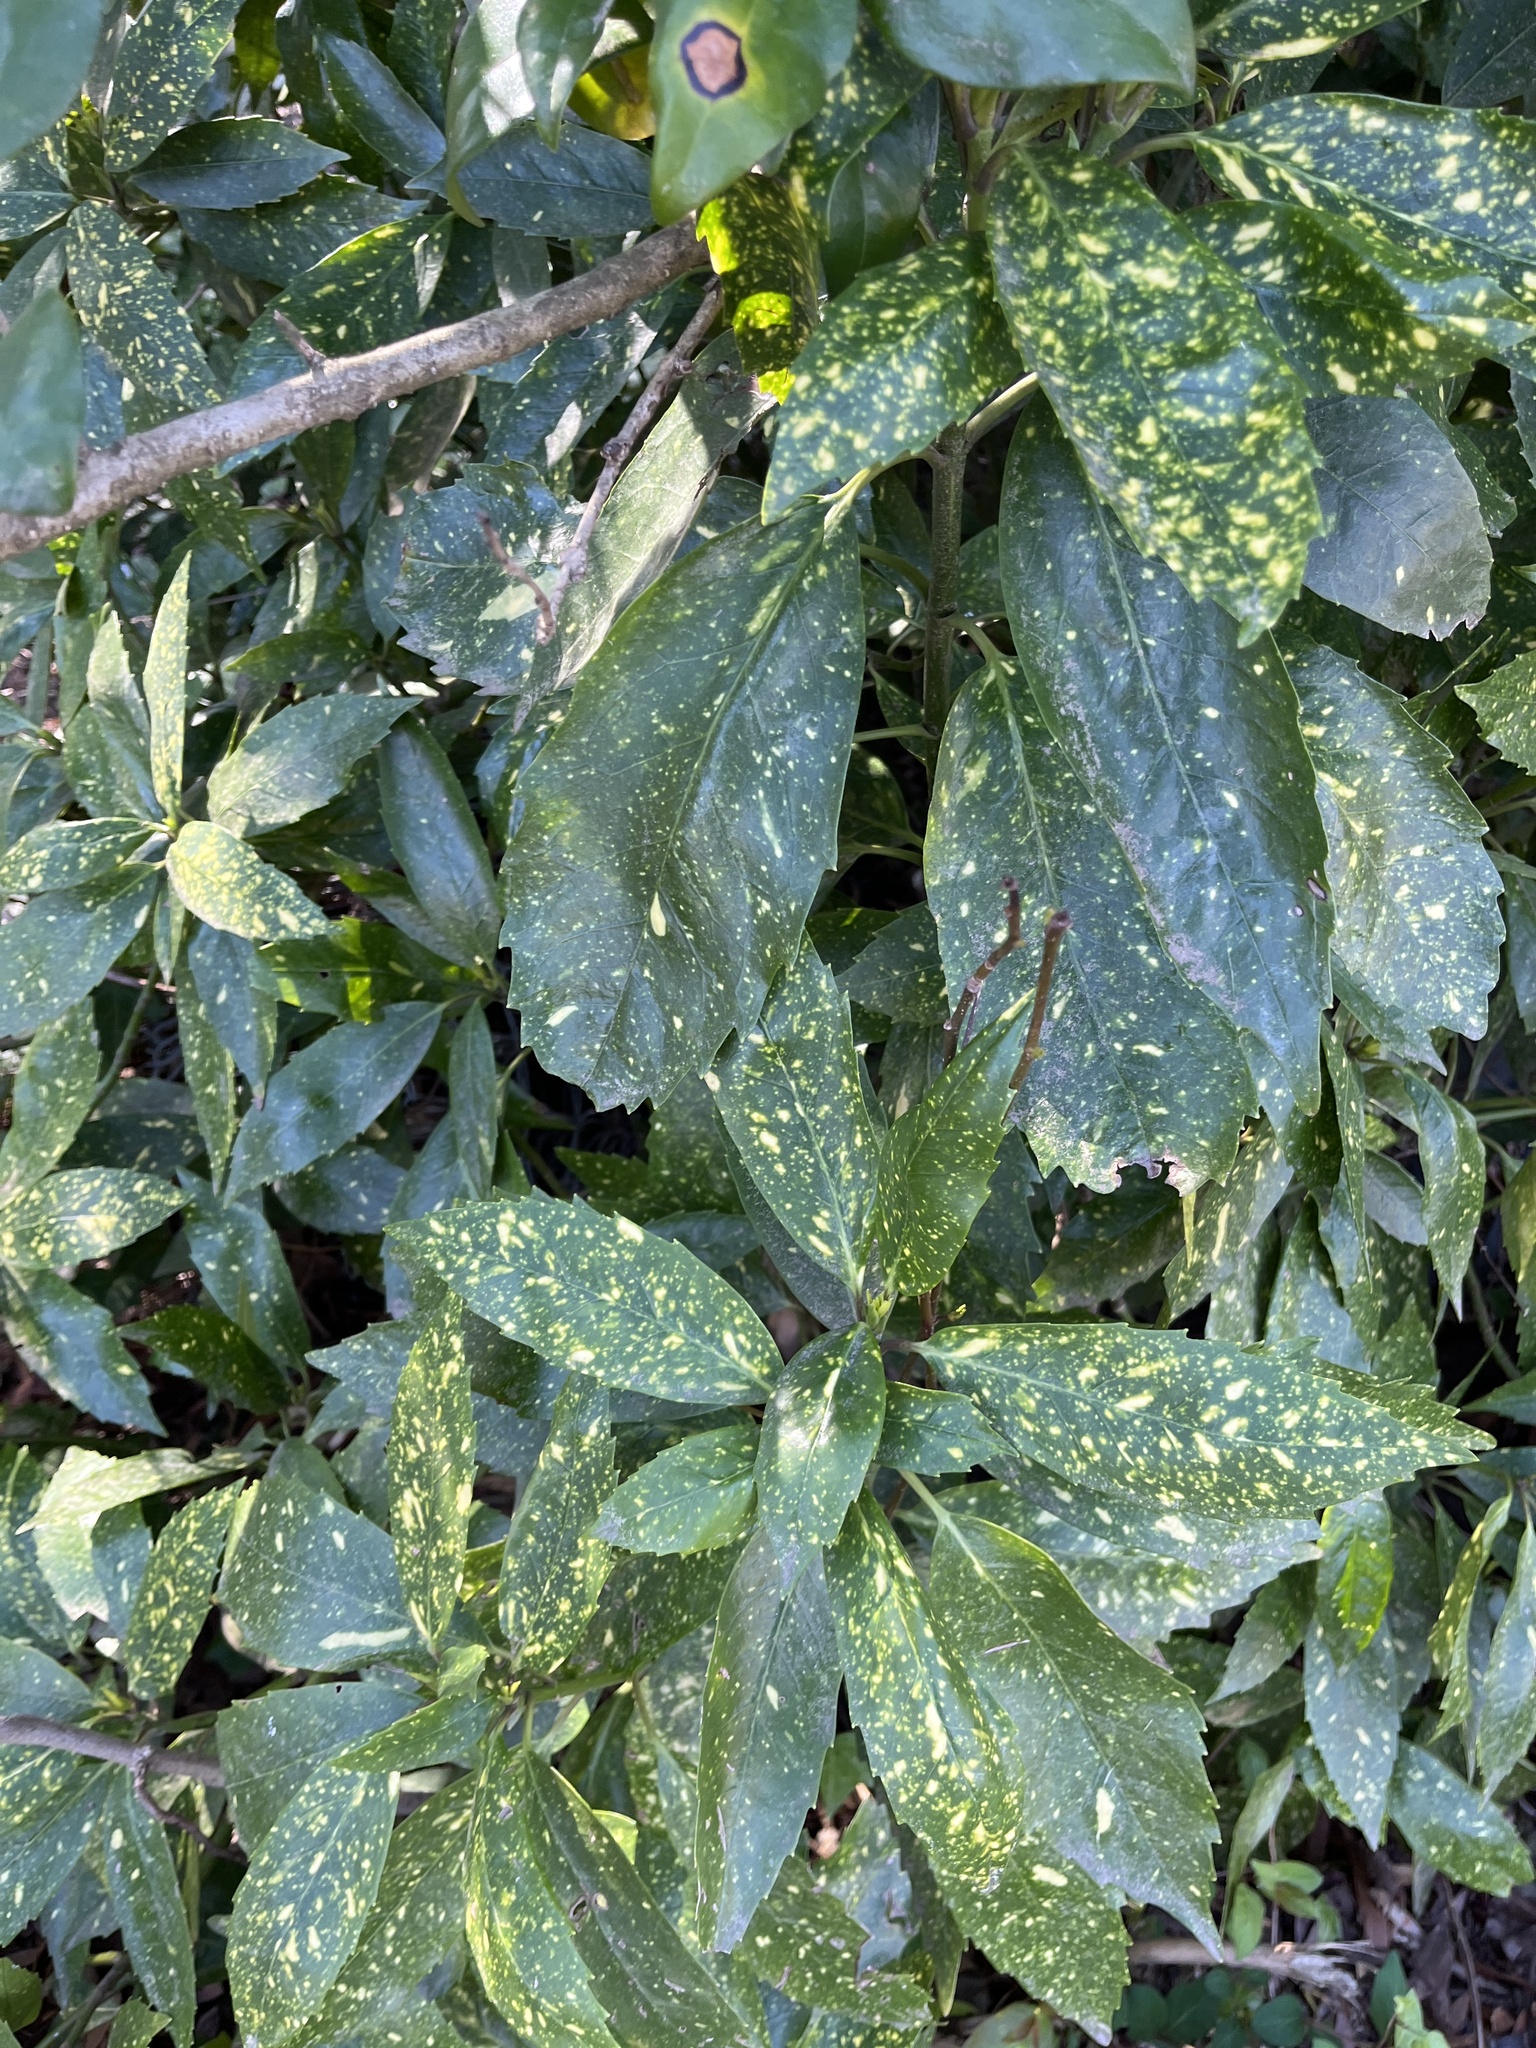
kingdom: Plantae
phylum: Tracheophyta
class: Magnoliopsida
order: Garryales
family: Garryaceae
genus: Aucuba
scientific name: Aucuba japonica
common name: Spotted-laurel
